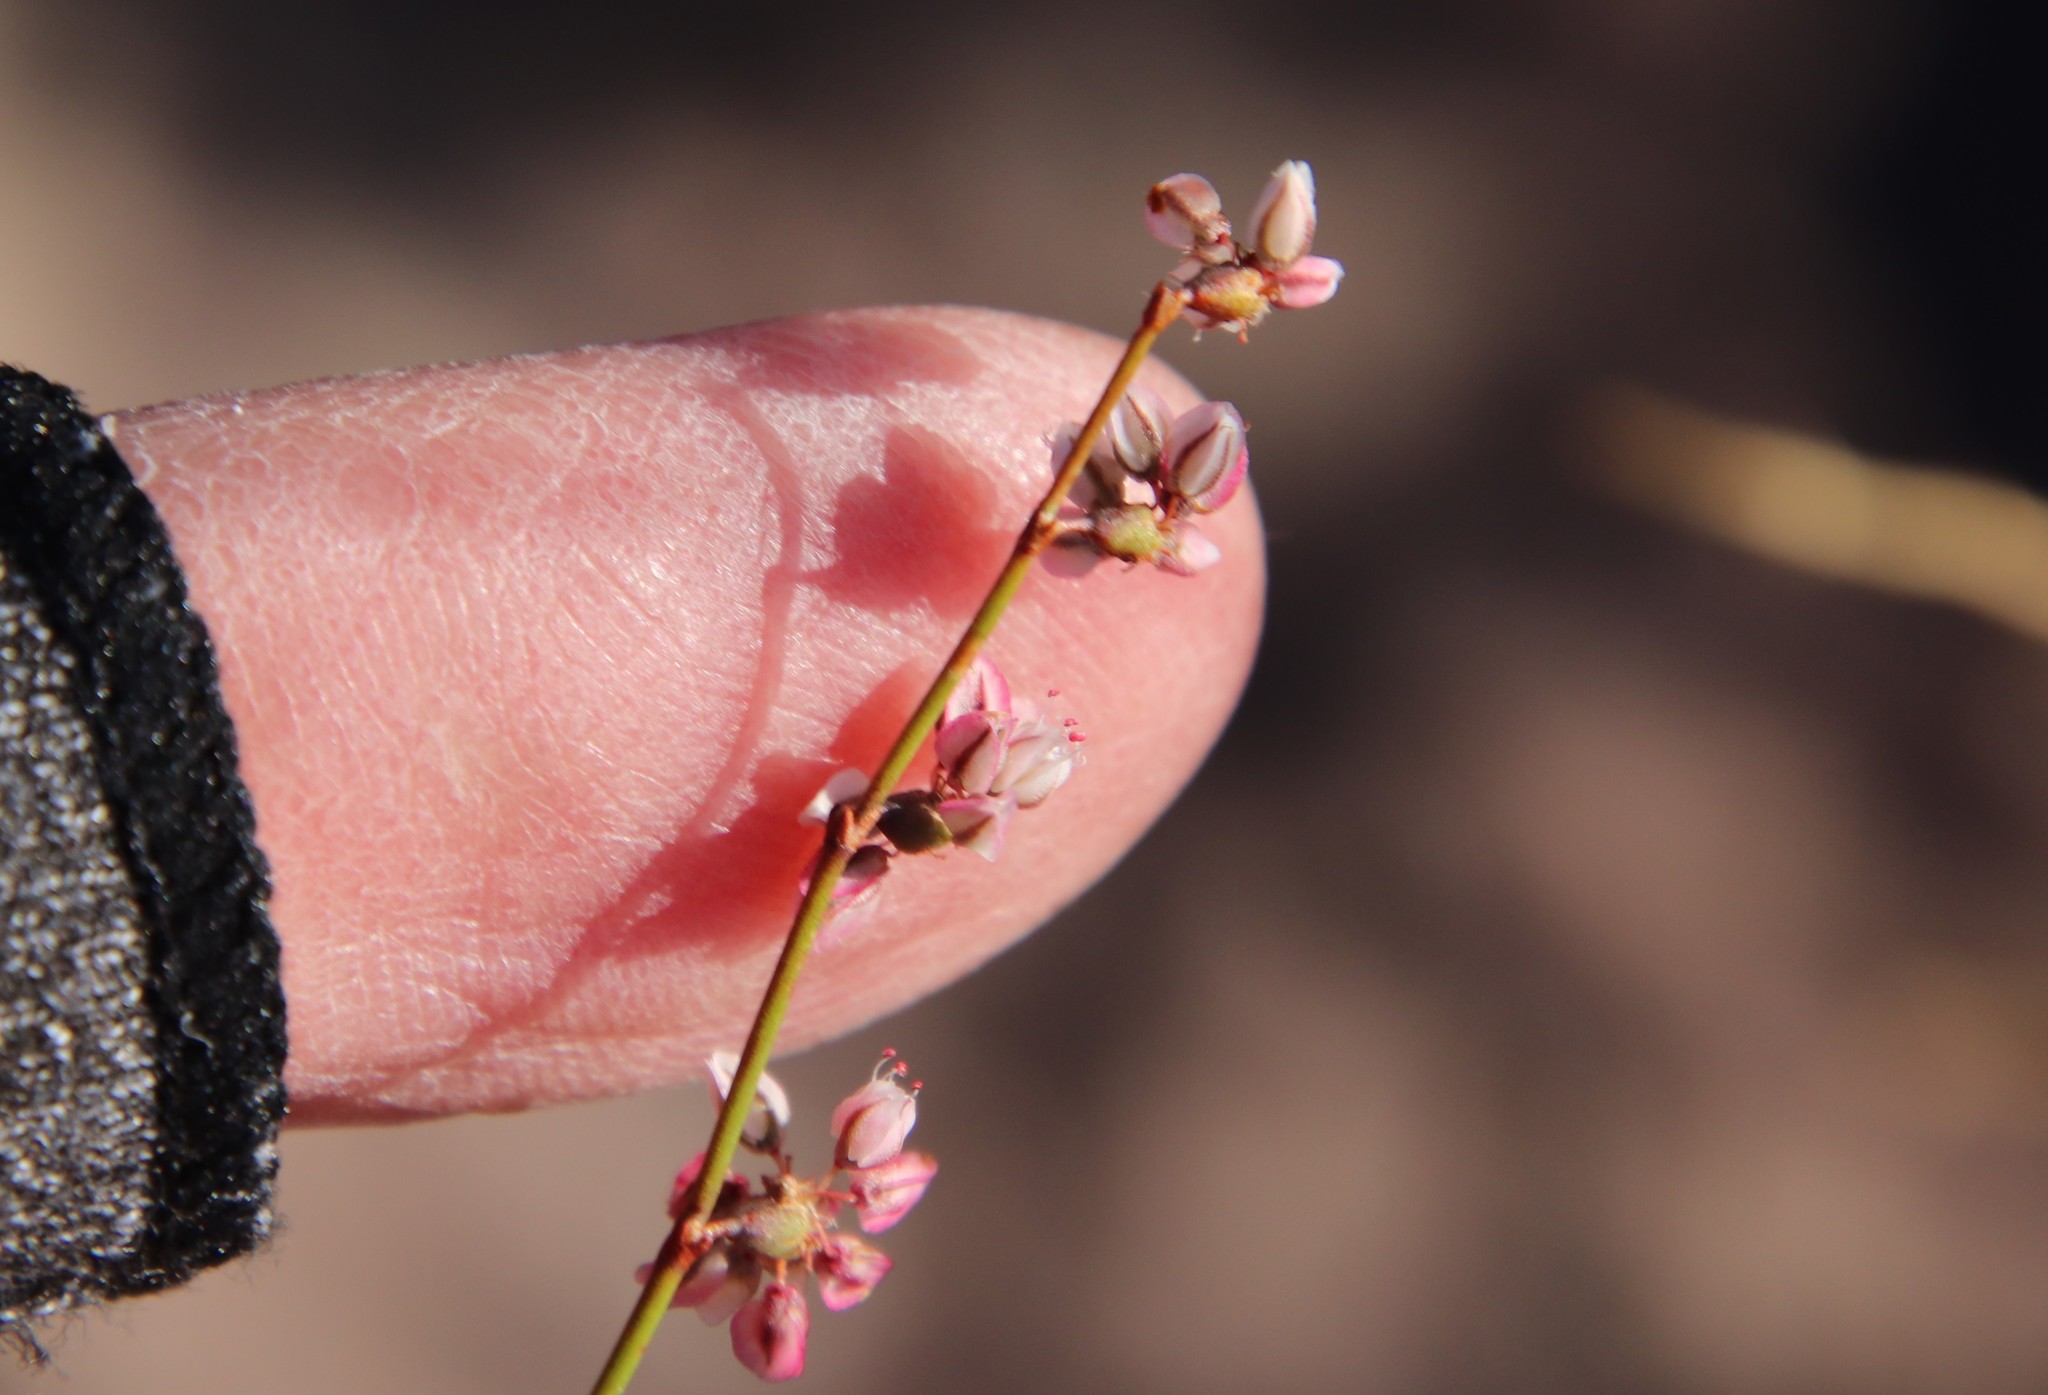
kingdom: Plantae
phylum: Tracheophyta
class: Magnoliopsida
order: Caryophyllales
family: Polygonaceae
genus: Eriogonum
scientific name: Eriogonum deflexum
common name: Skeleton-weed
